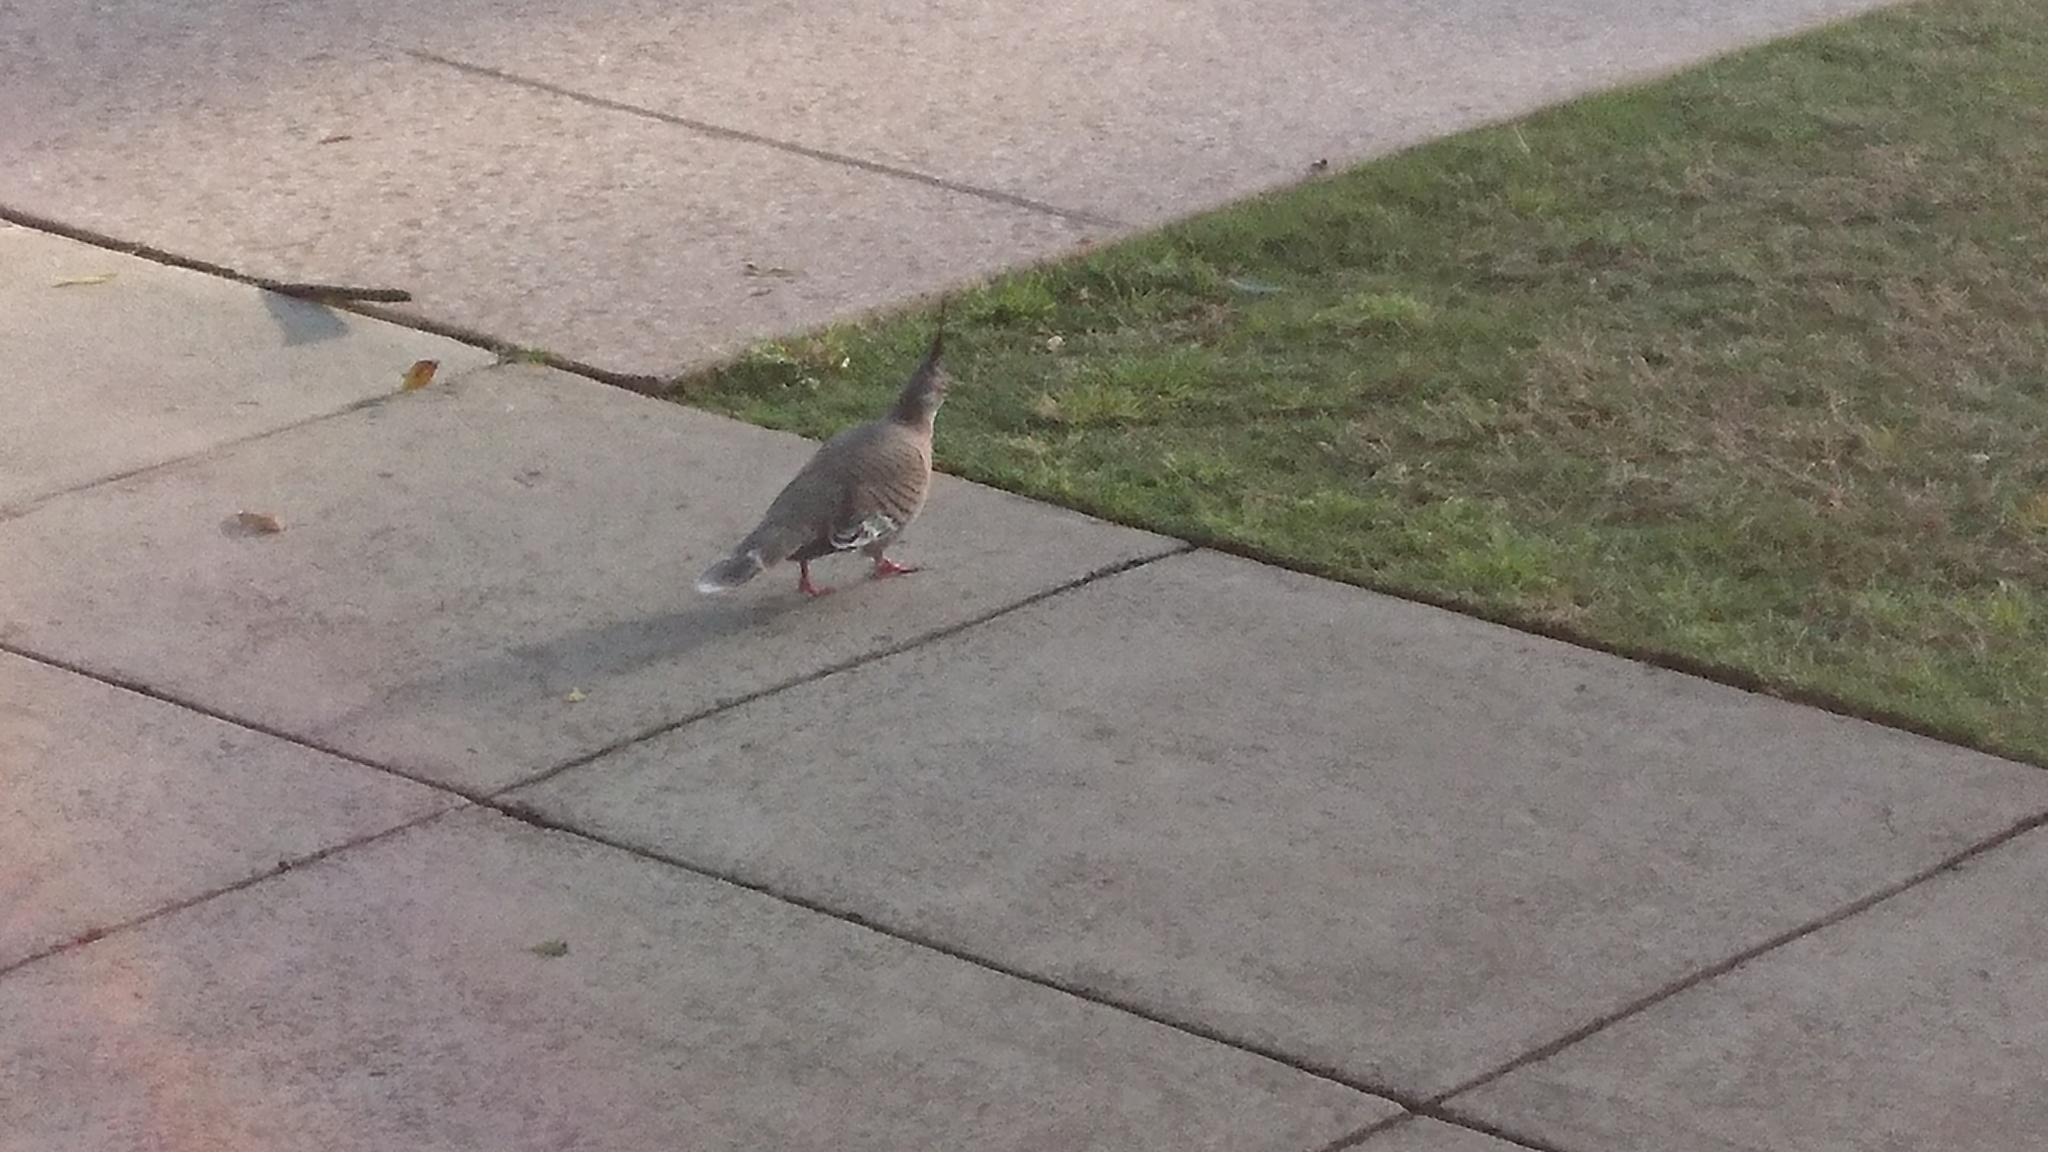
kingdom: Animalia
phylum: Chordata
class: Aves
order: Columbiformes
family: Columbidae
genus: Ocyphaps
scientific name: Ocyphaps lophotes
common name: Crested pigeon
